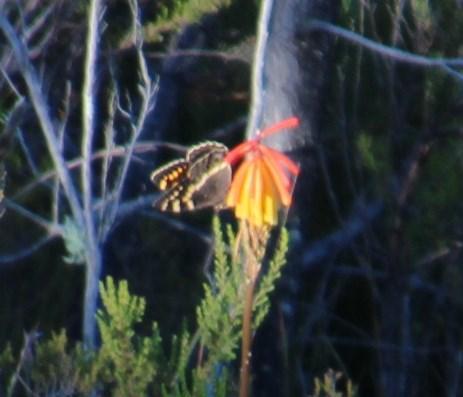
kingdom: Animalia
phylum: Arthropoda
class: Insecta
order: Lepidoptera
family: Nymphalidae
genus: Meneris
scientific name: Meneris Aeropetes tulbaghia
